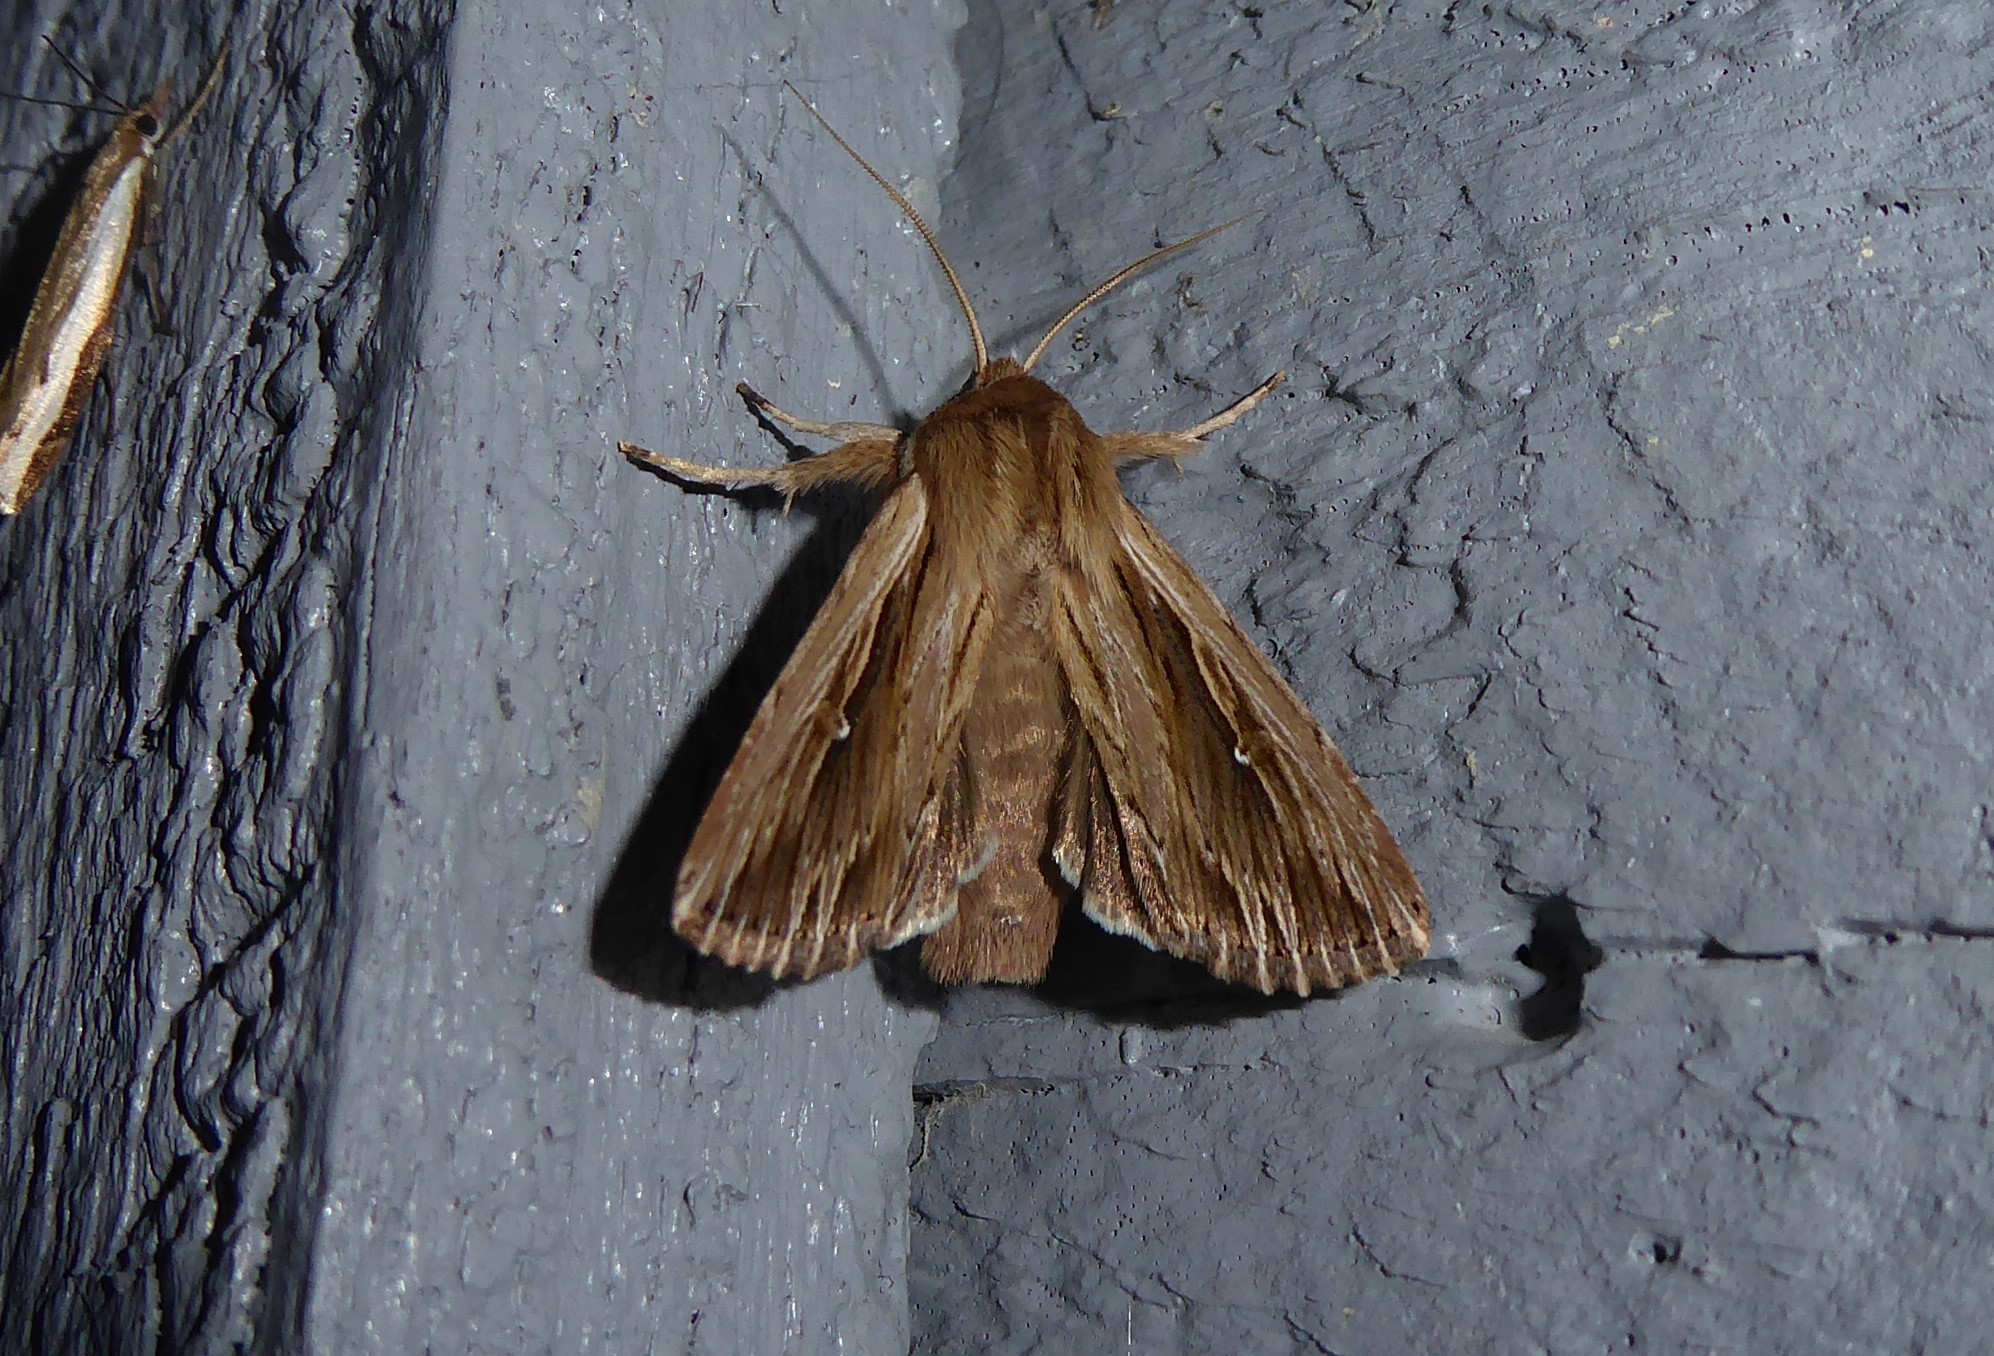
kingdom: Animalia
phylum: Arthropoda
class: Insecta
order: Lepidoptera
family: Noctuidae
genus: Persectania
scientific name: Persectania aversa
